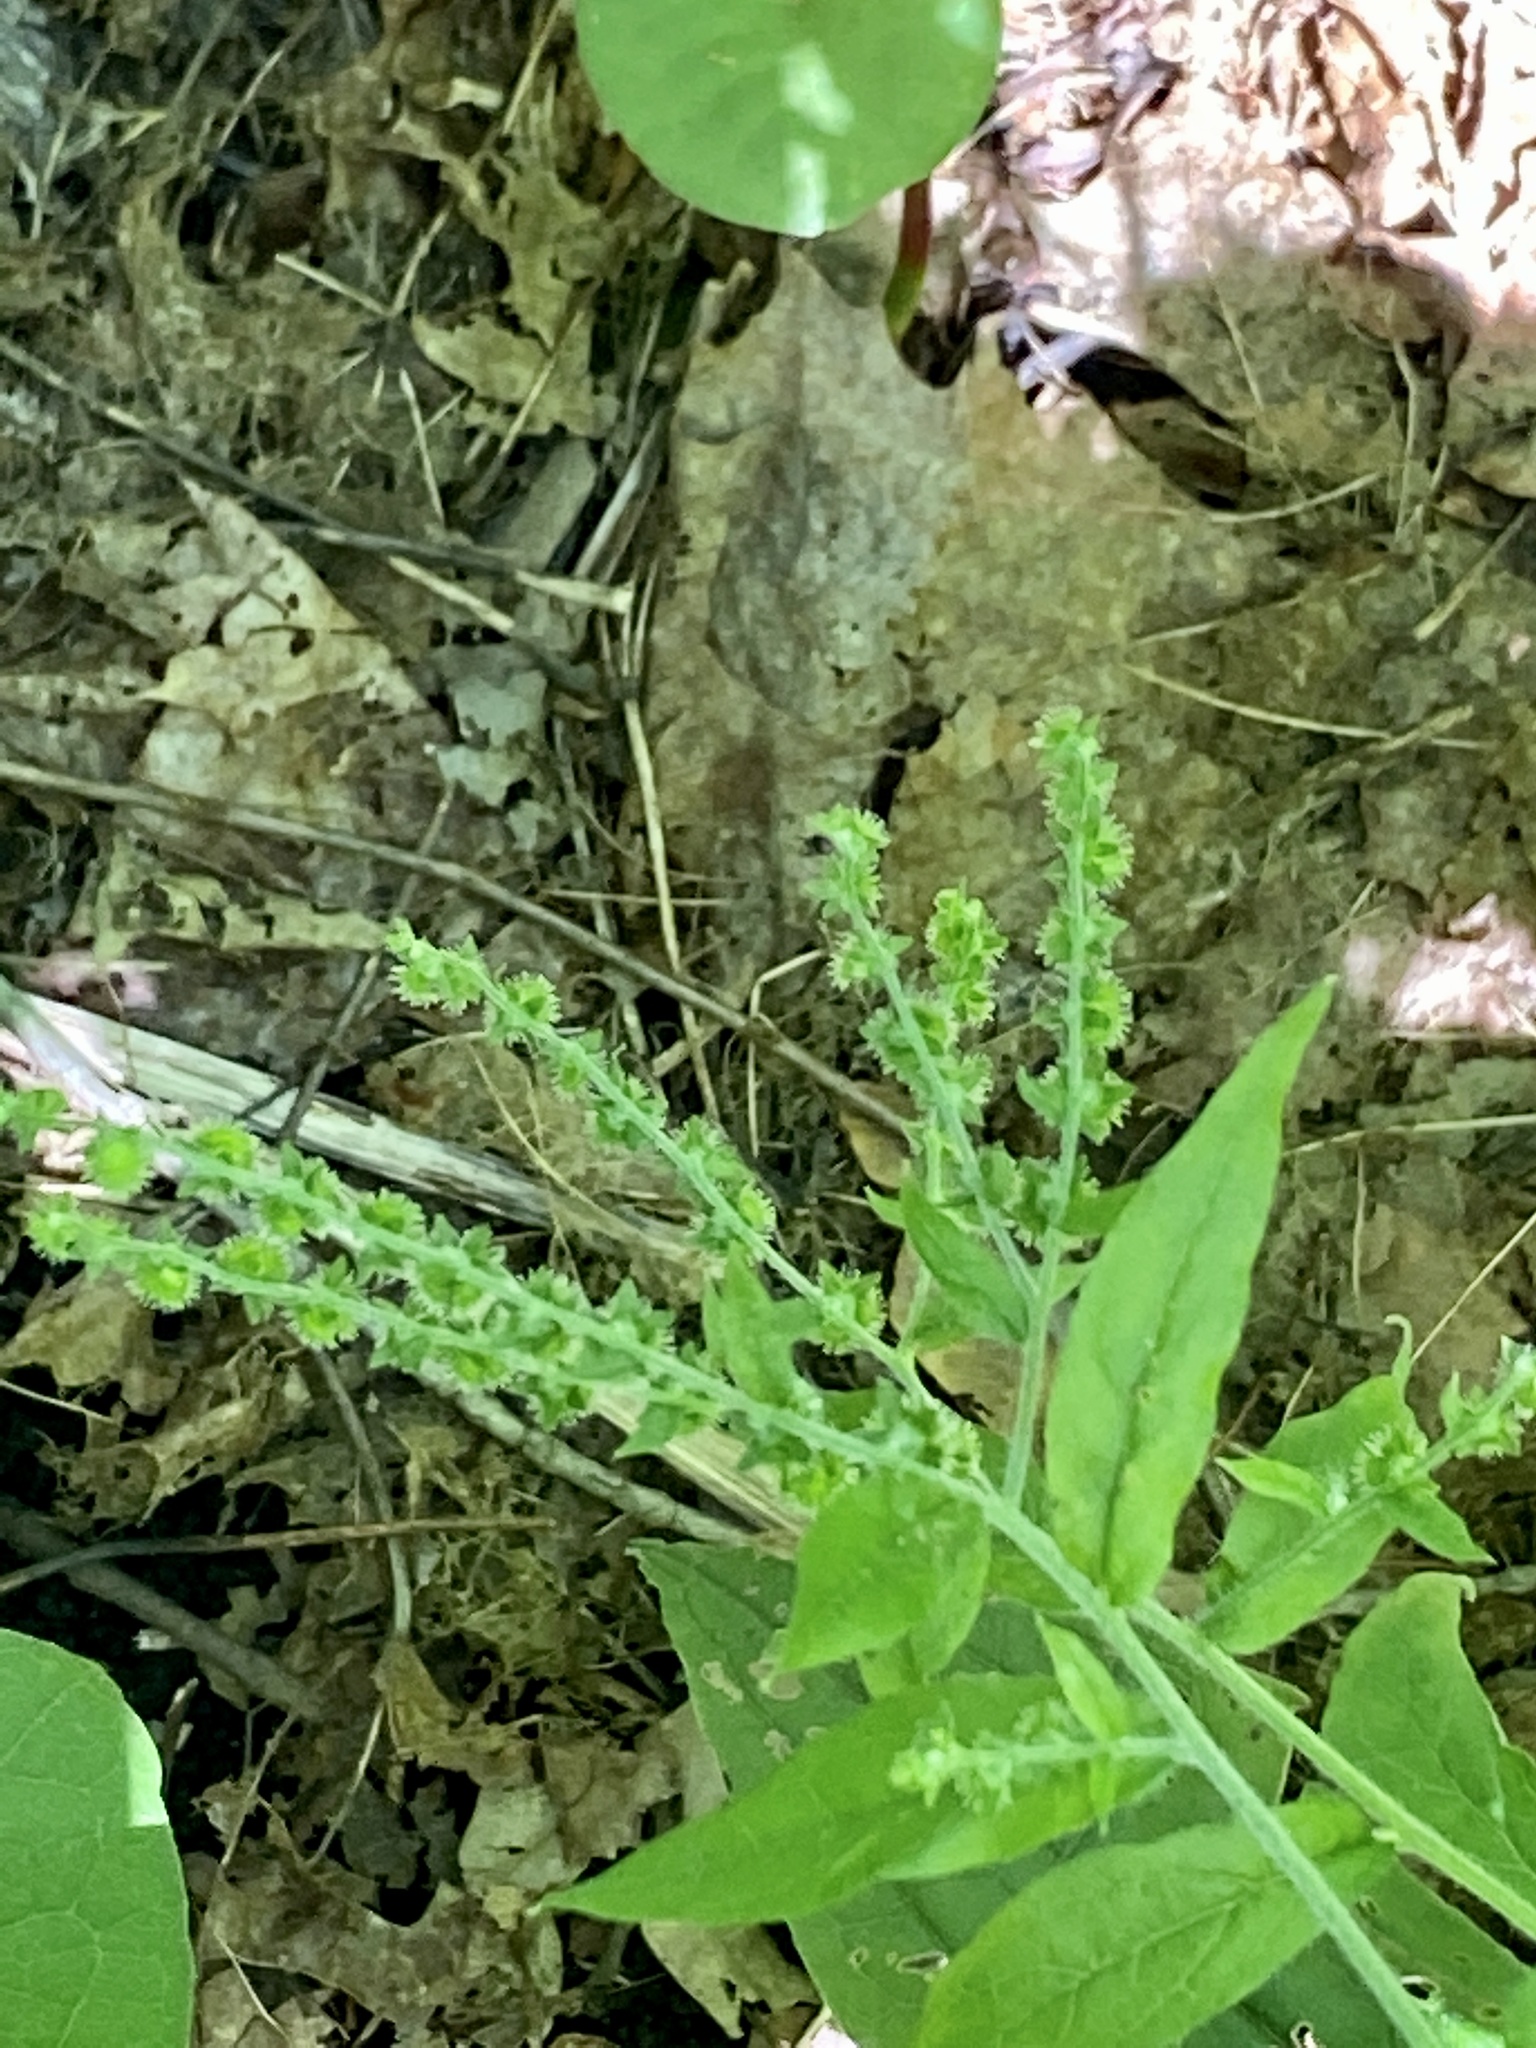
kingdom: Plantae
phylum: Tracheophyta
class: Magnoliopsida
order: Boraginales
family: Boraginaceae
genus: Hackelia
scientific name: Hackelia virginiana
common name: Beggar's-lice
